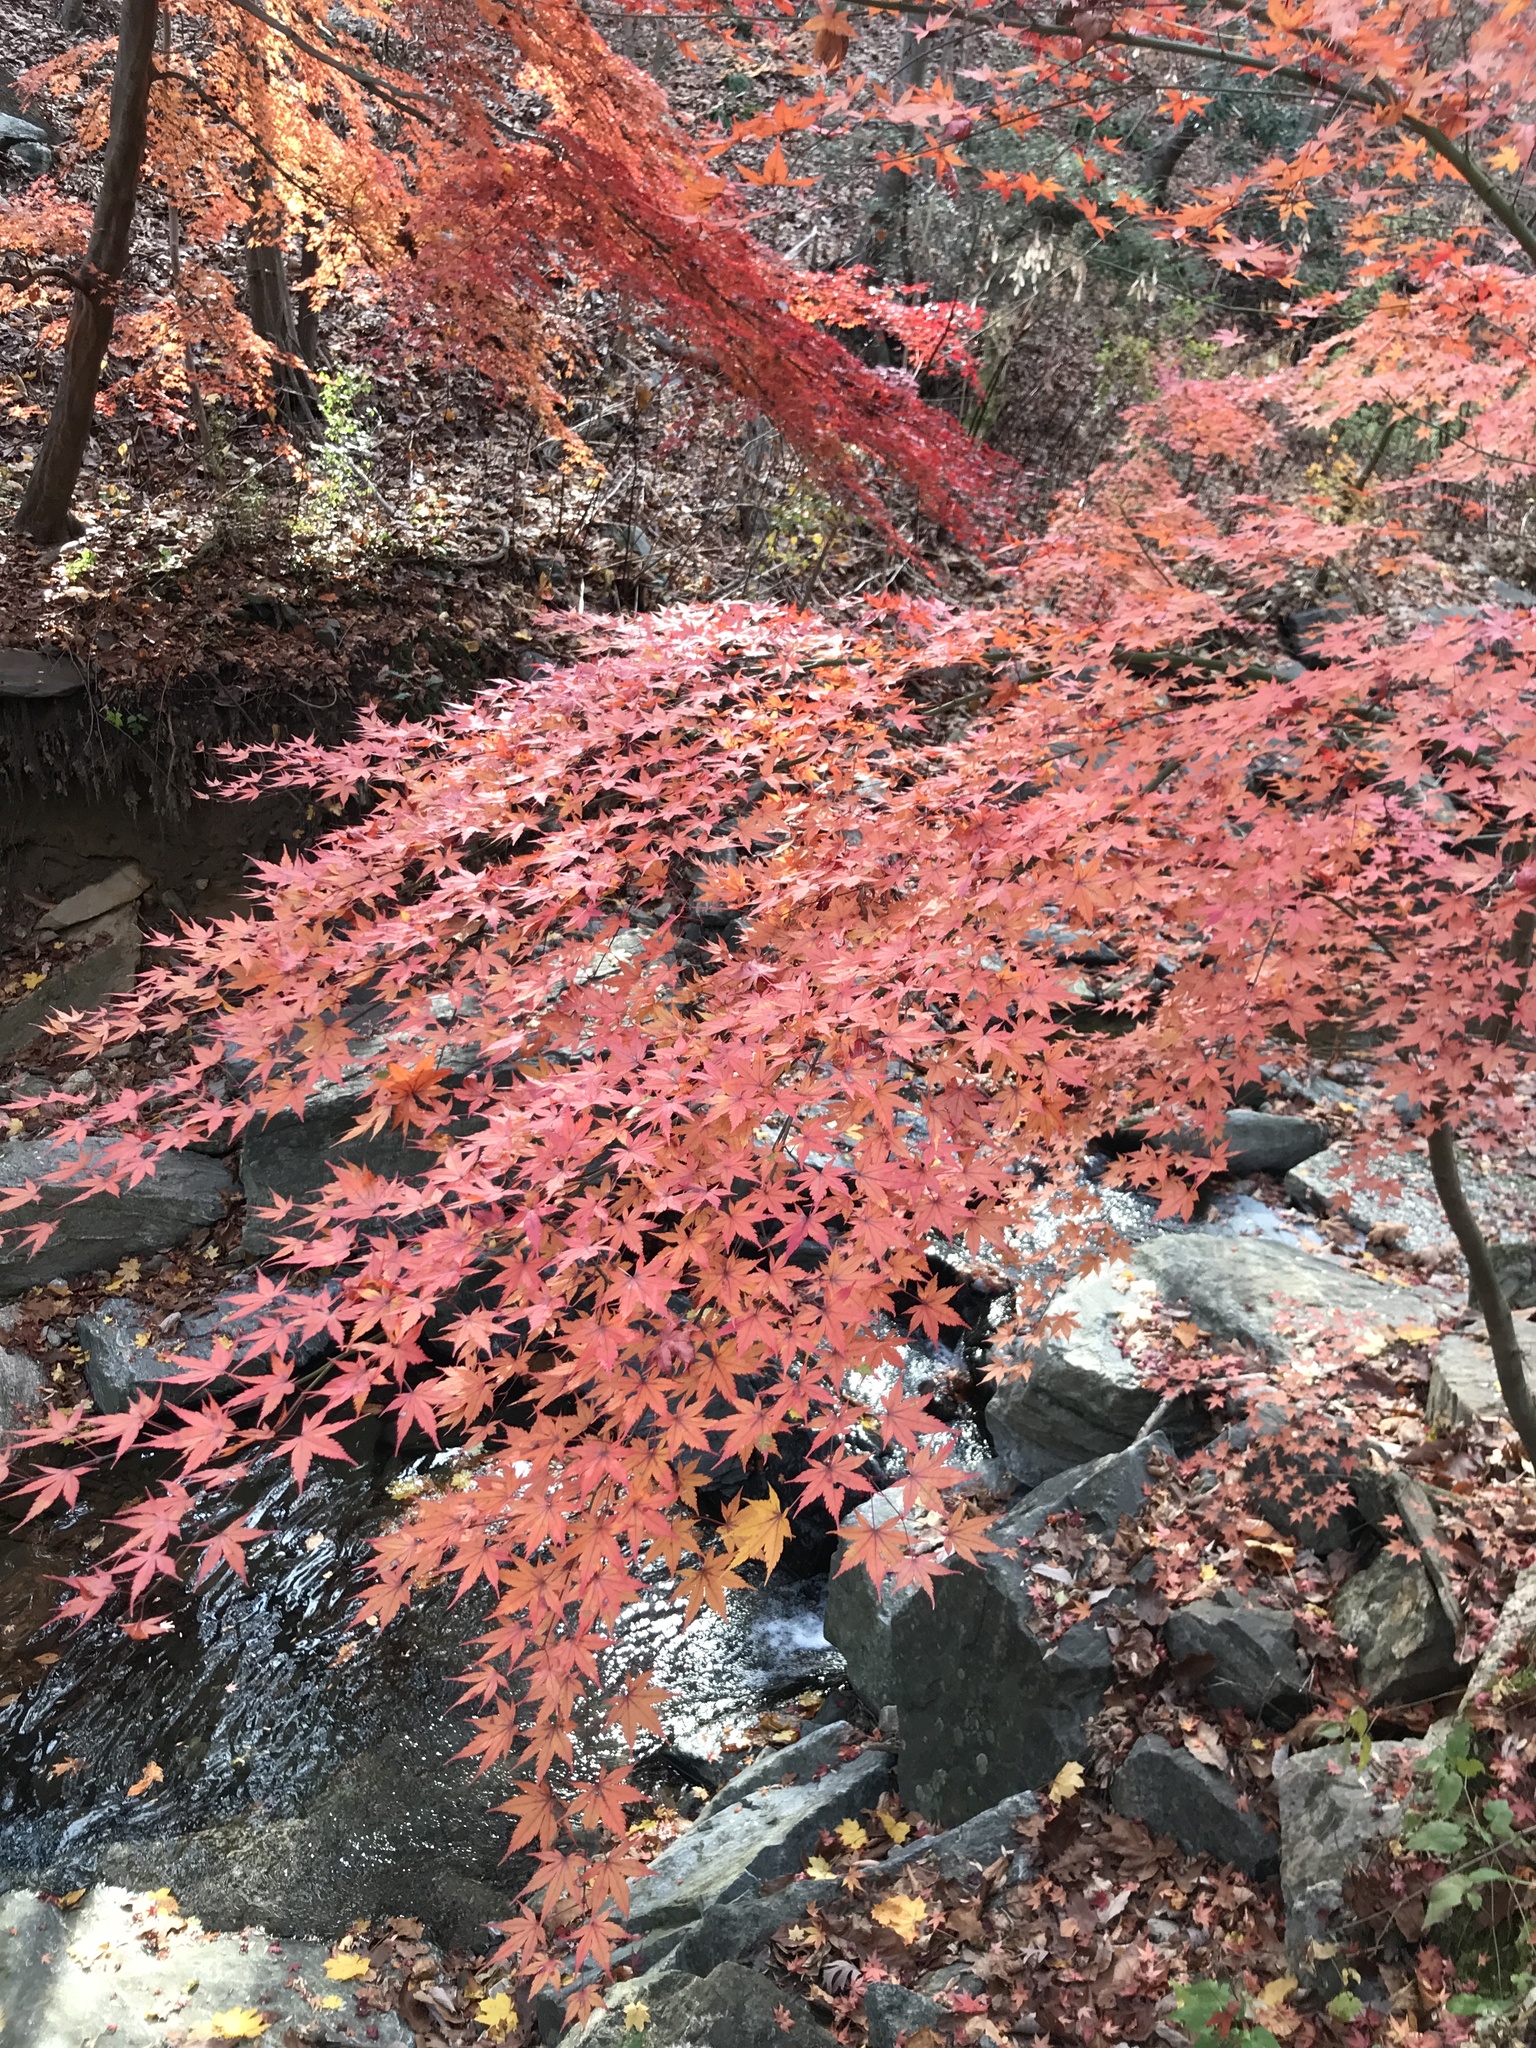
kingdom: Plantae
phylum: Tracheophyta
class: Magnoliopsida
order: Sapindales
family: Sapindaceae
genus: Acer
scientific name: Acer palmatum
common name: Japanese maple
